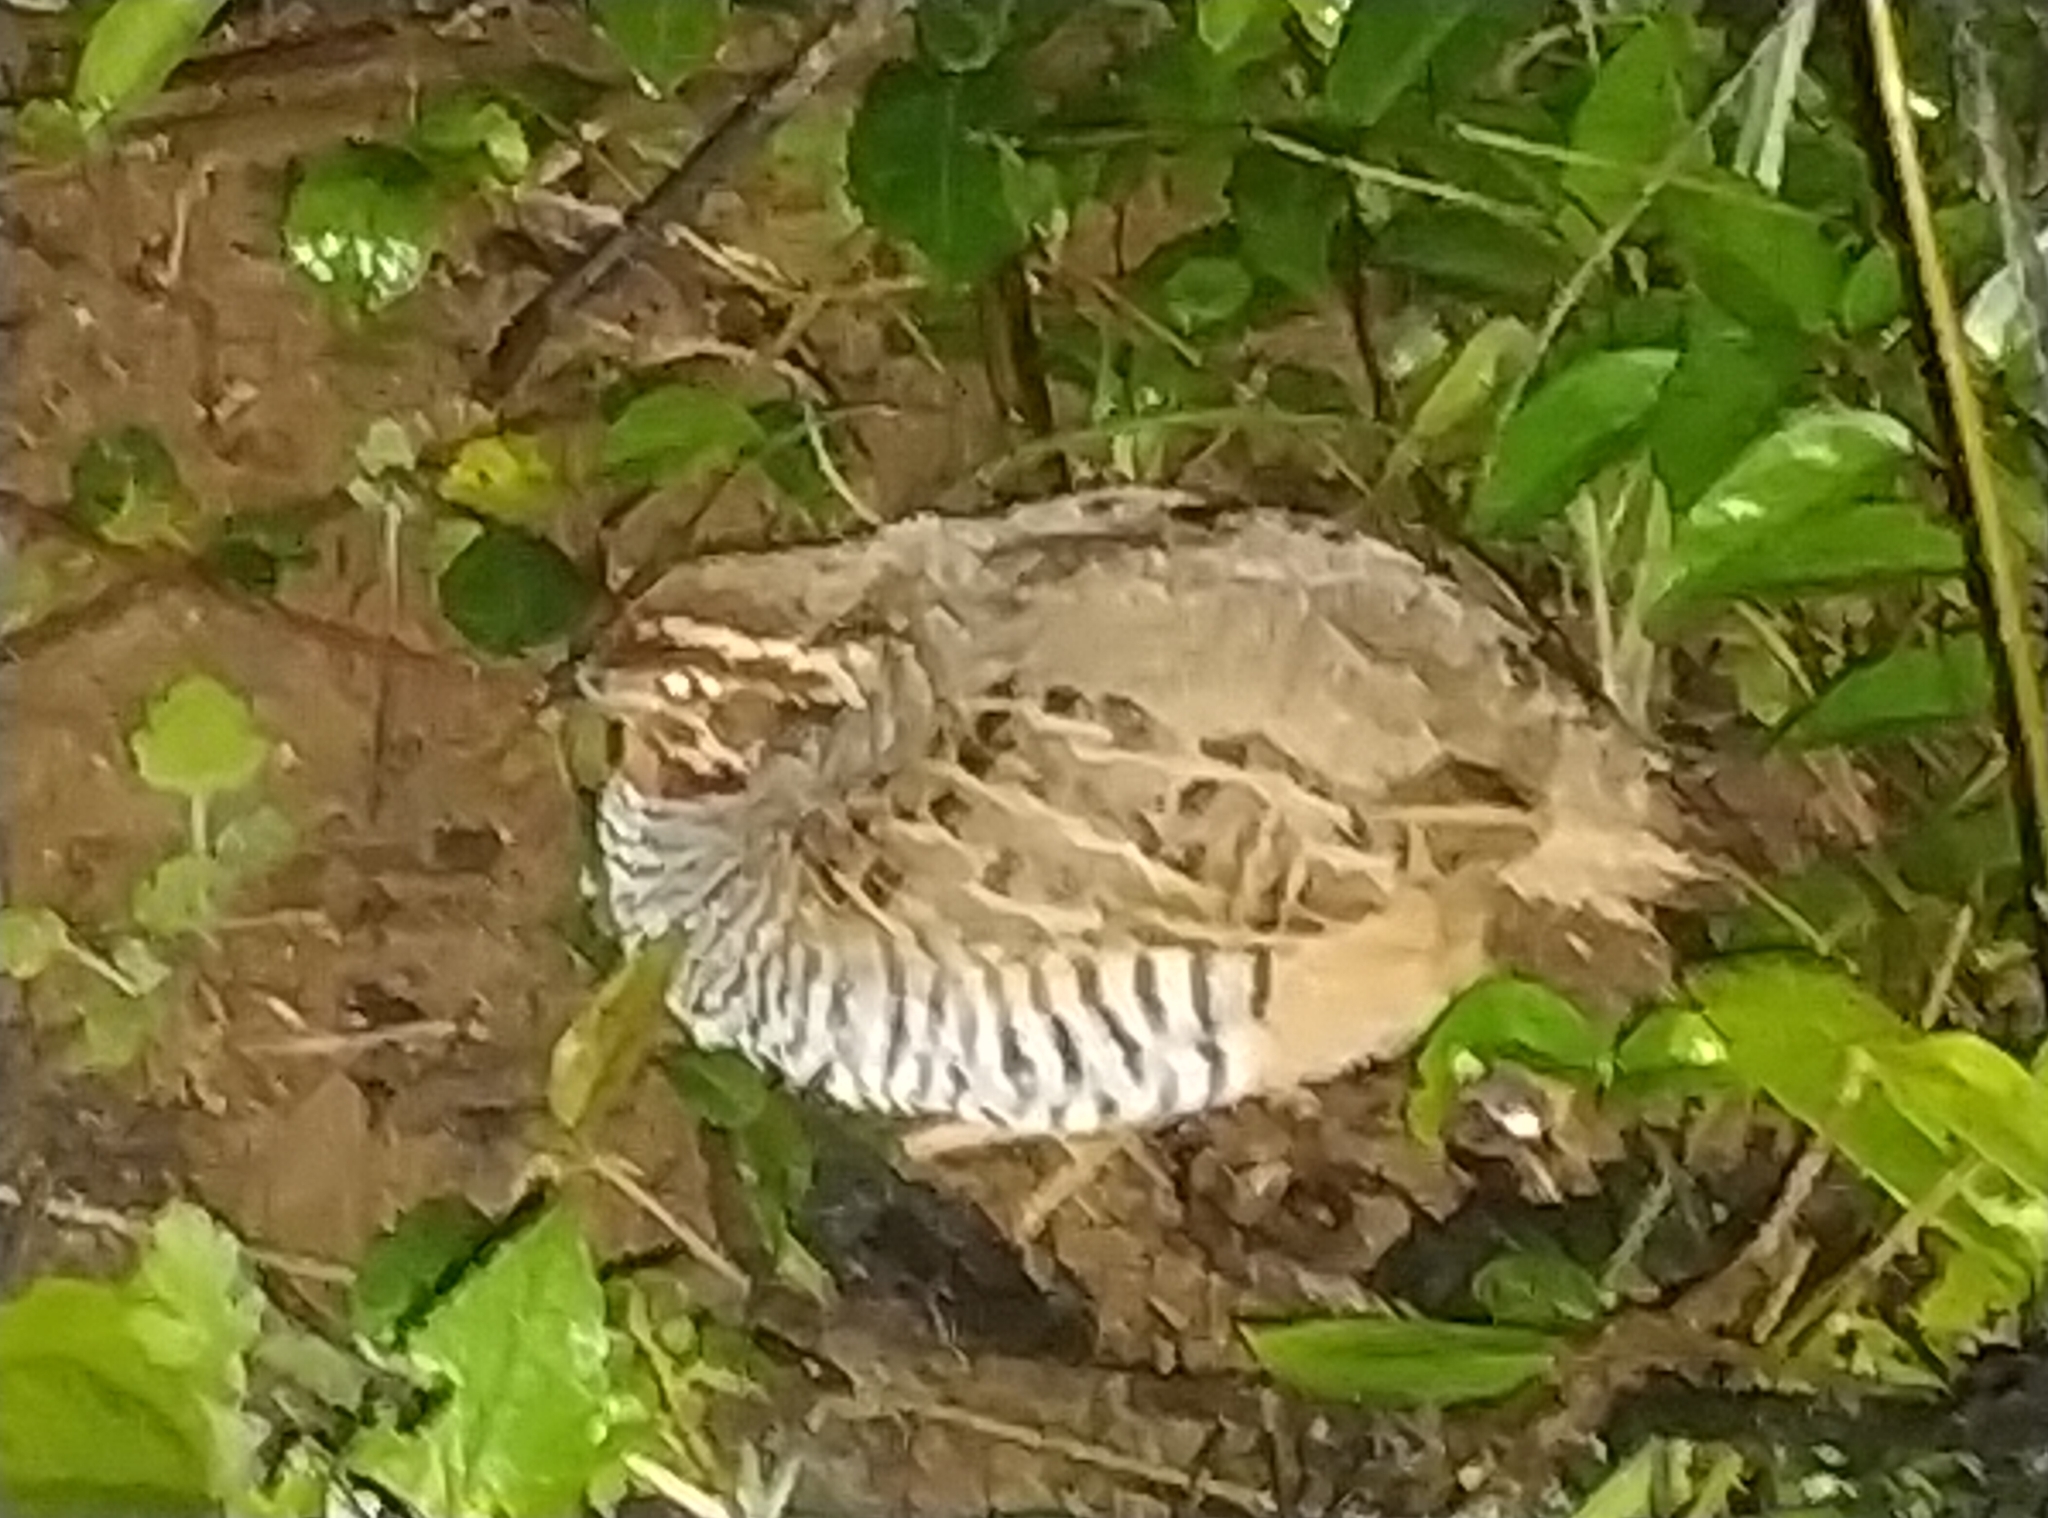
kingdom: Animalia
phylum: Chordata
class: Aves
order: Galliformes
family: Phasianidae
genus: Perdicula
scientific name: Perdicula asiatica
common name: Jungle bush quail
